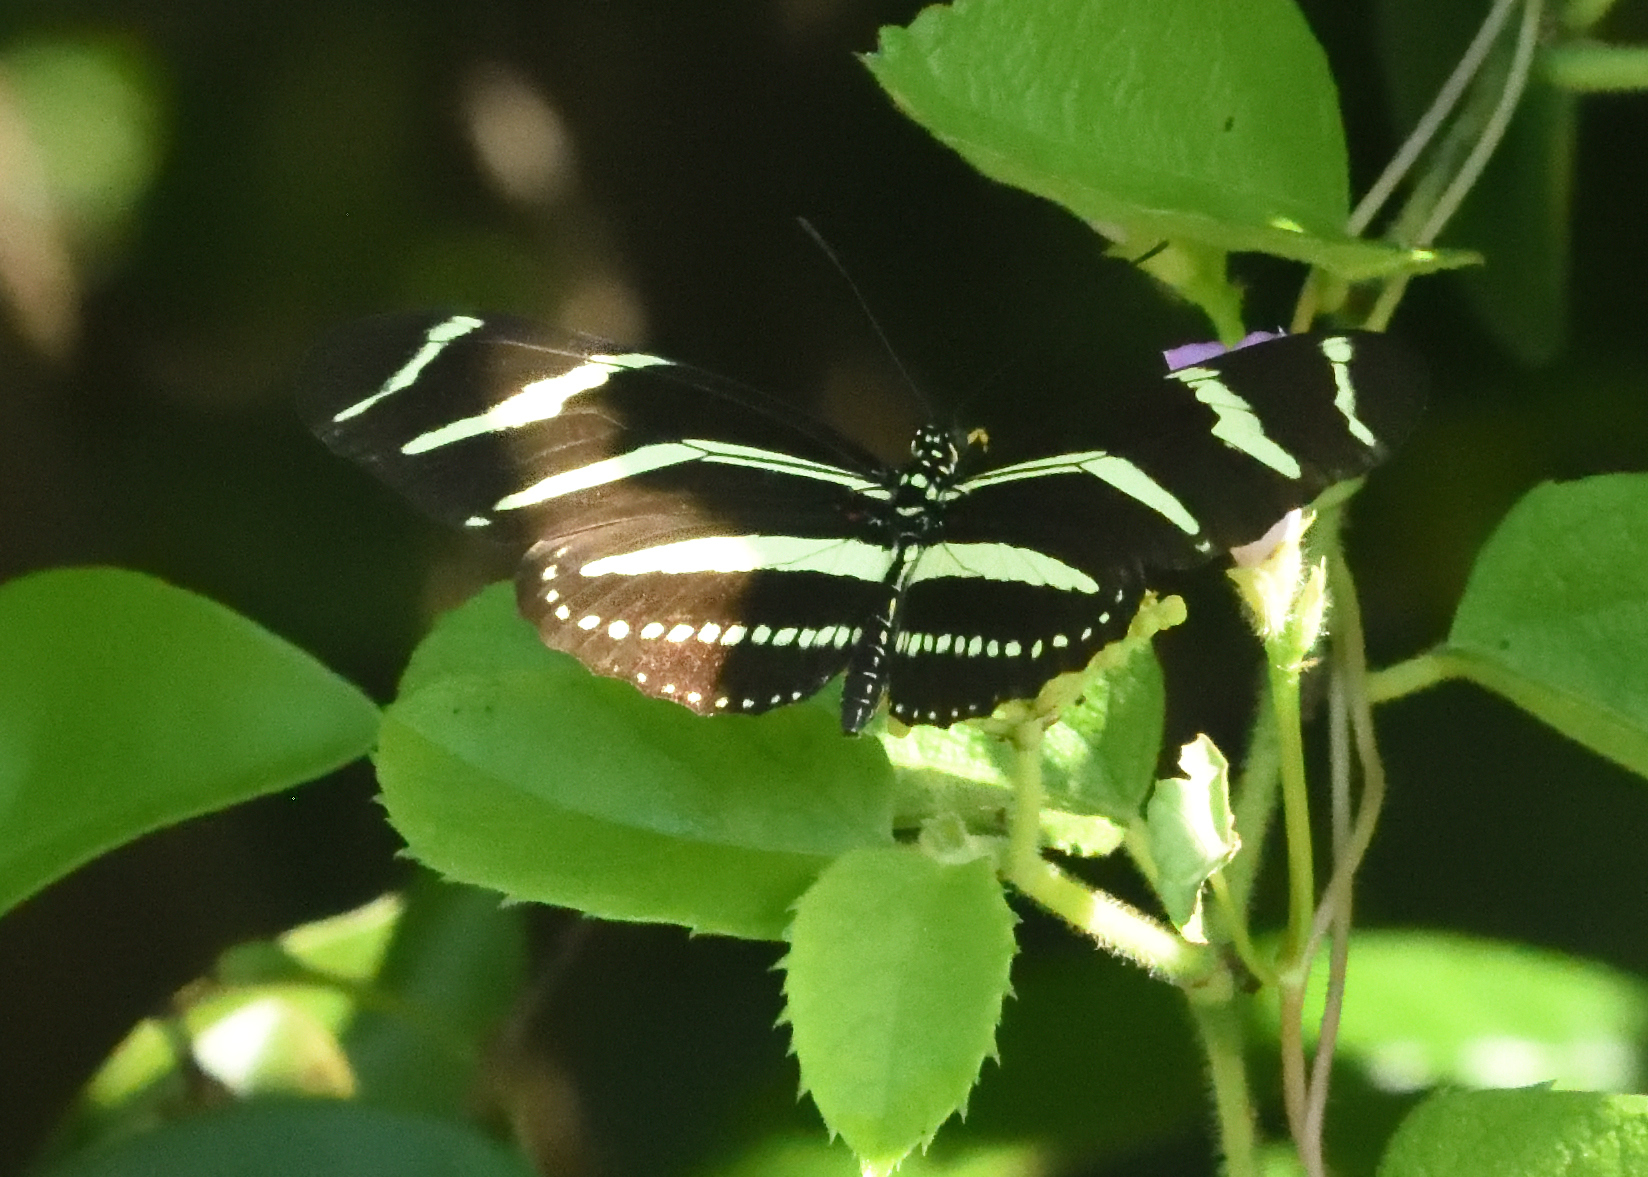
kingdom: Animalia
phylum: Arthropoda
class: Insecta
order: Lepidoptera
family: Nymphalidae
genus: Heliconius
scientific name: Heliconius charithonia
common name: Zebra long wing
